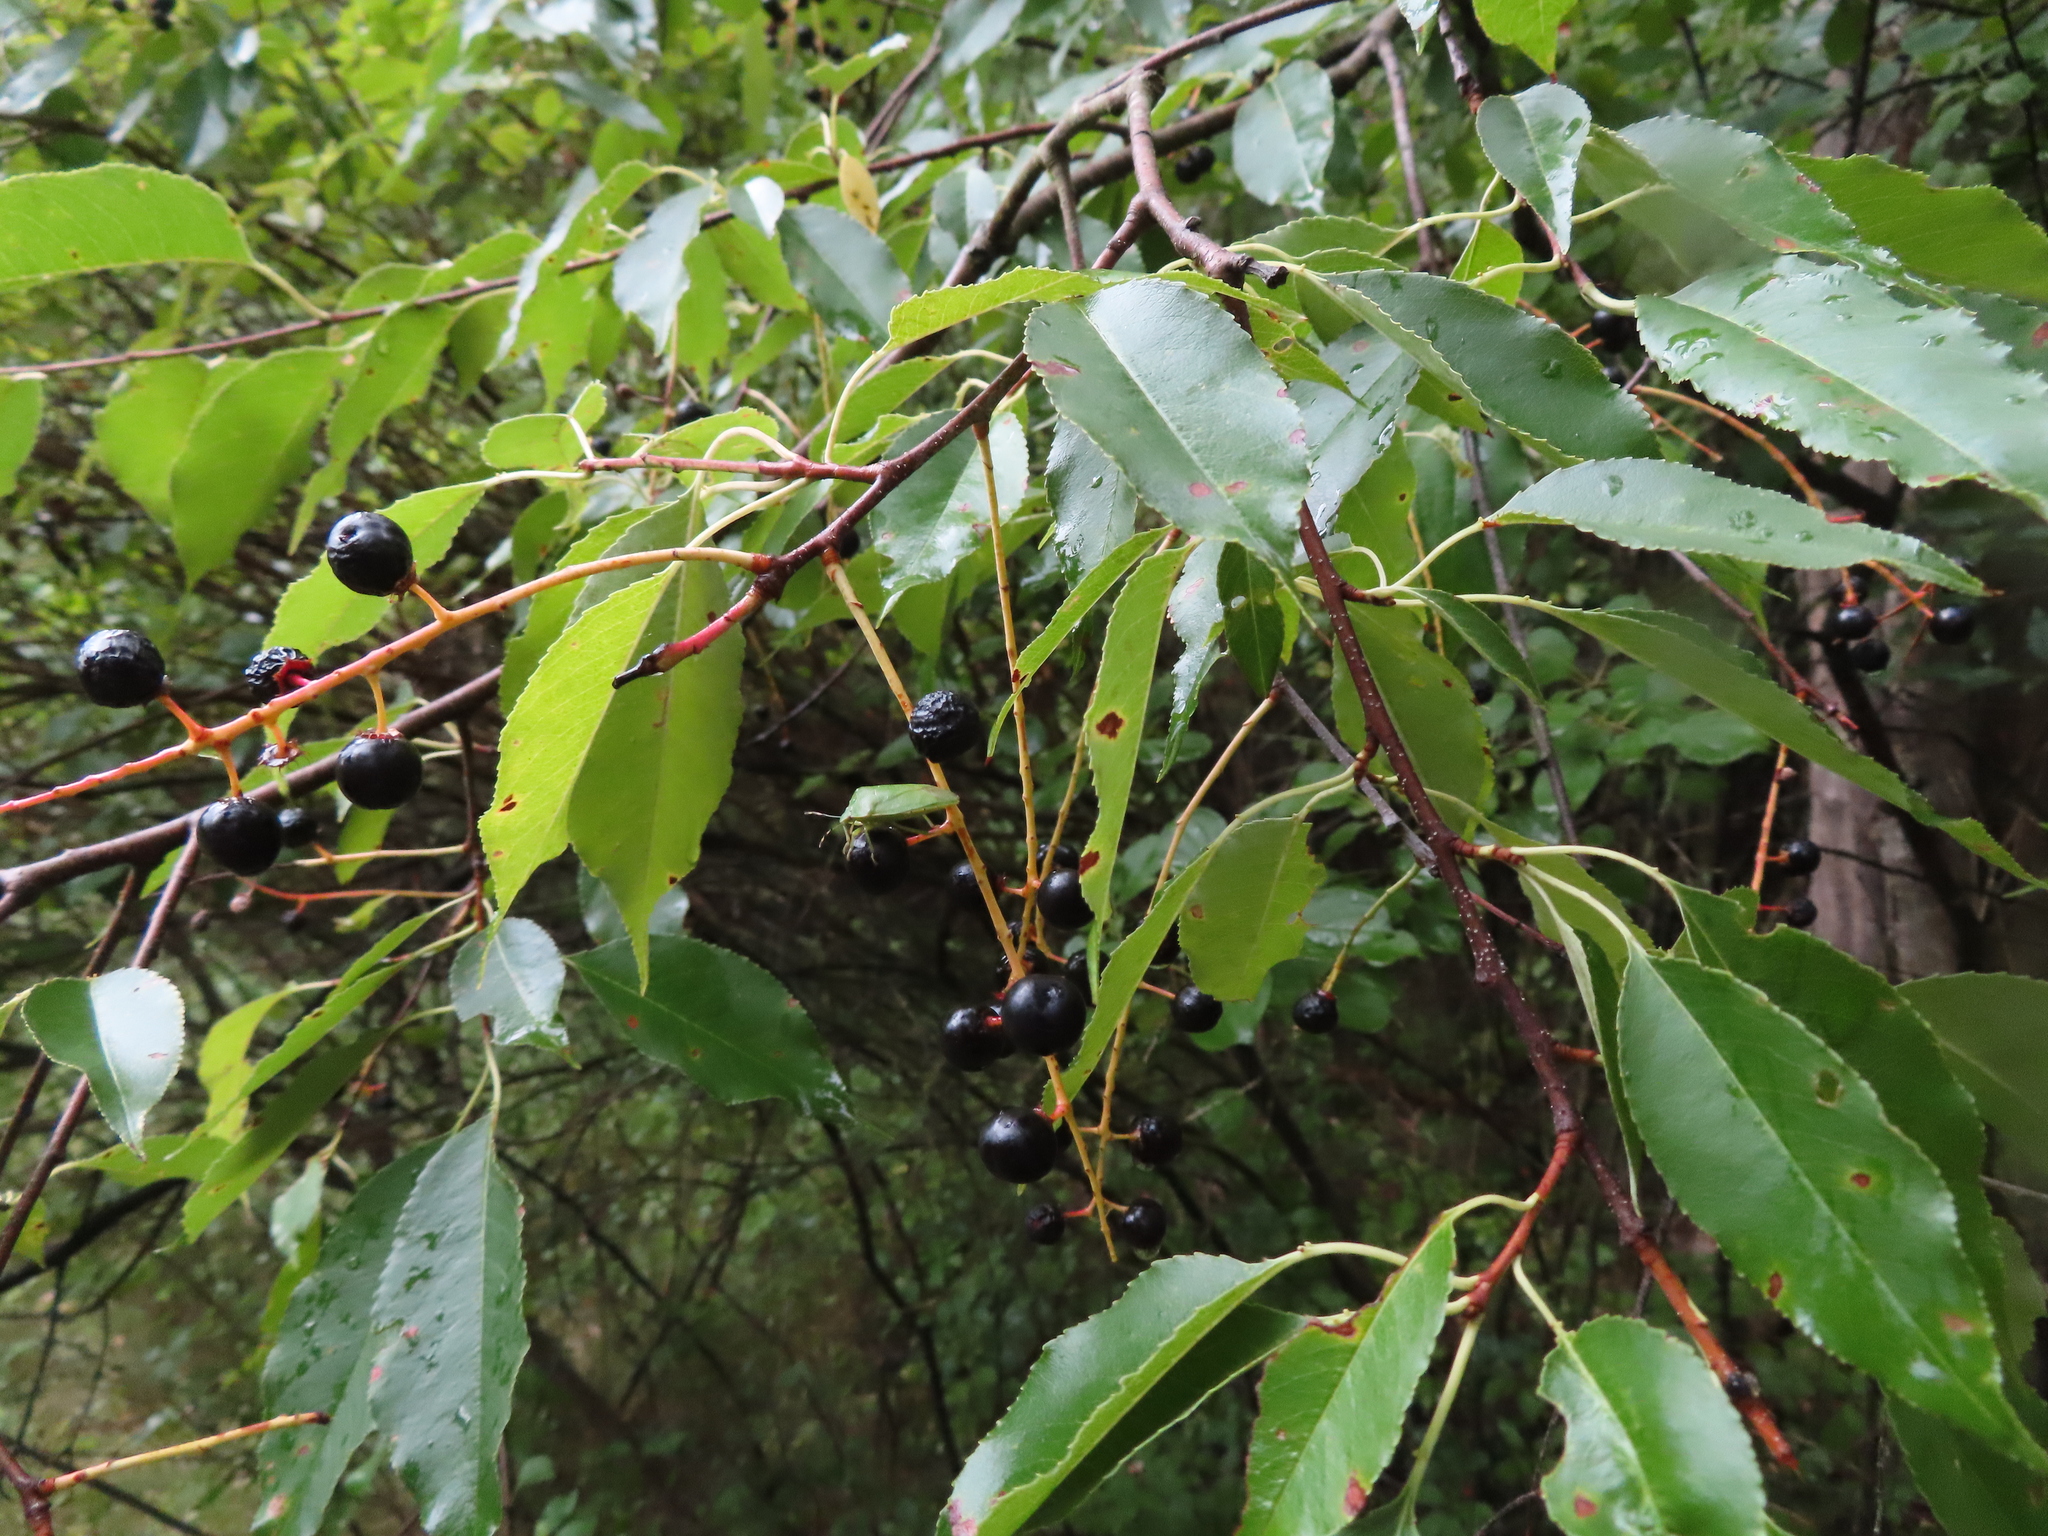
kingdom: Plantae
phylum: Tracheophyta
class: Magnoliopsida
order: Rosales
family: Rosaceae
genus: Prunus
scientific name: Prunus serotina
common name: Black cherry
